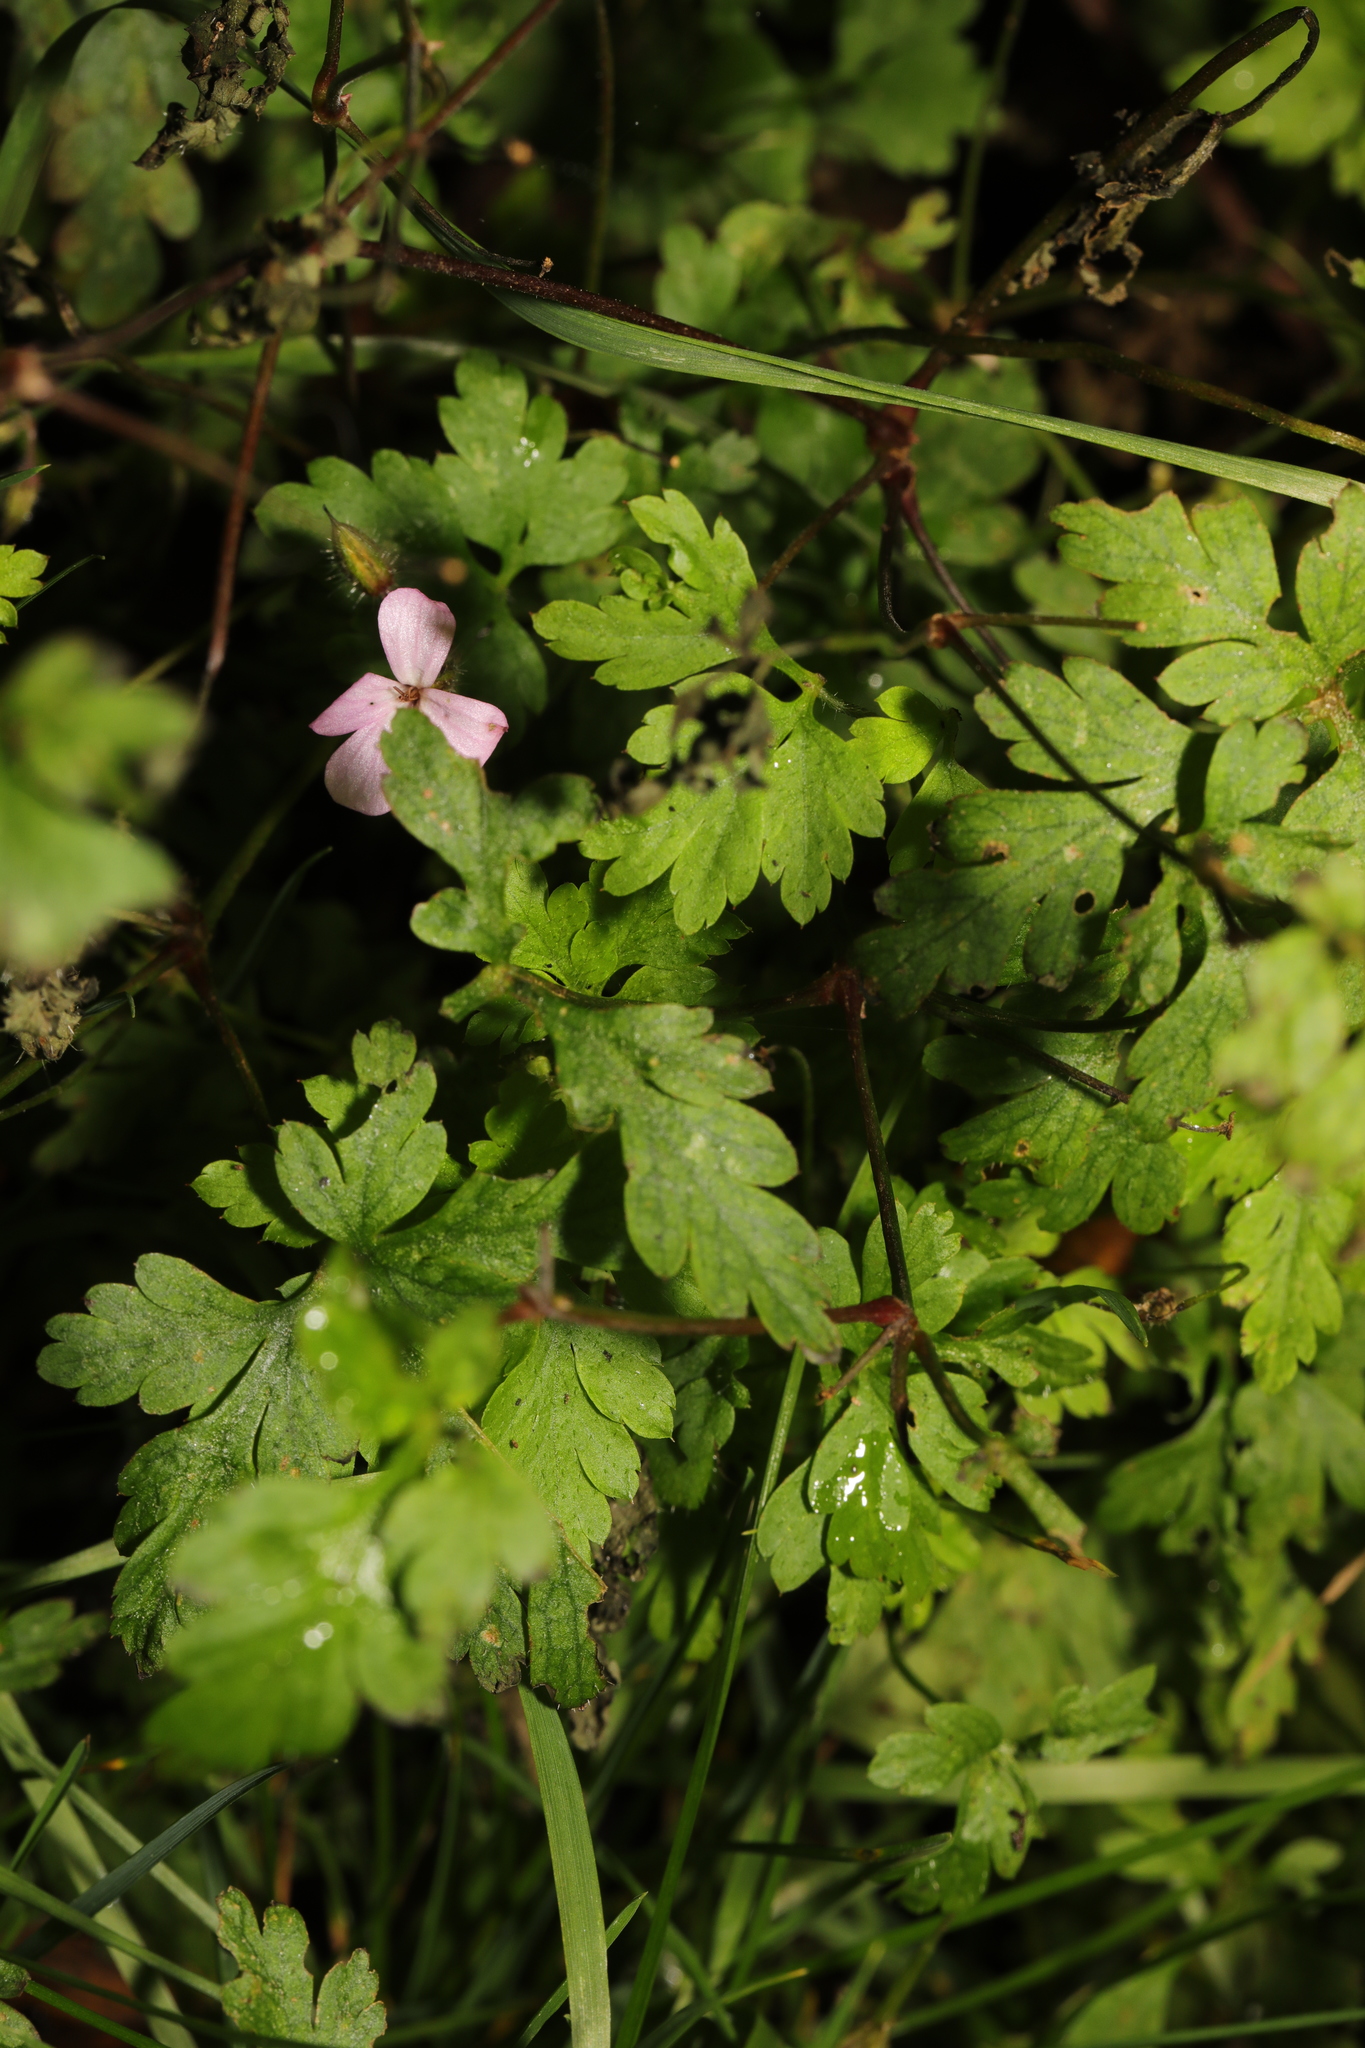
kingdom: Plantae
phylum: Tracheophyta
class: Magnoliopsida
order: Geraniales
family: Geraniaceae
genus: Geranium
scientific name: Geranium robertianum
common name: Herb-robert
